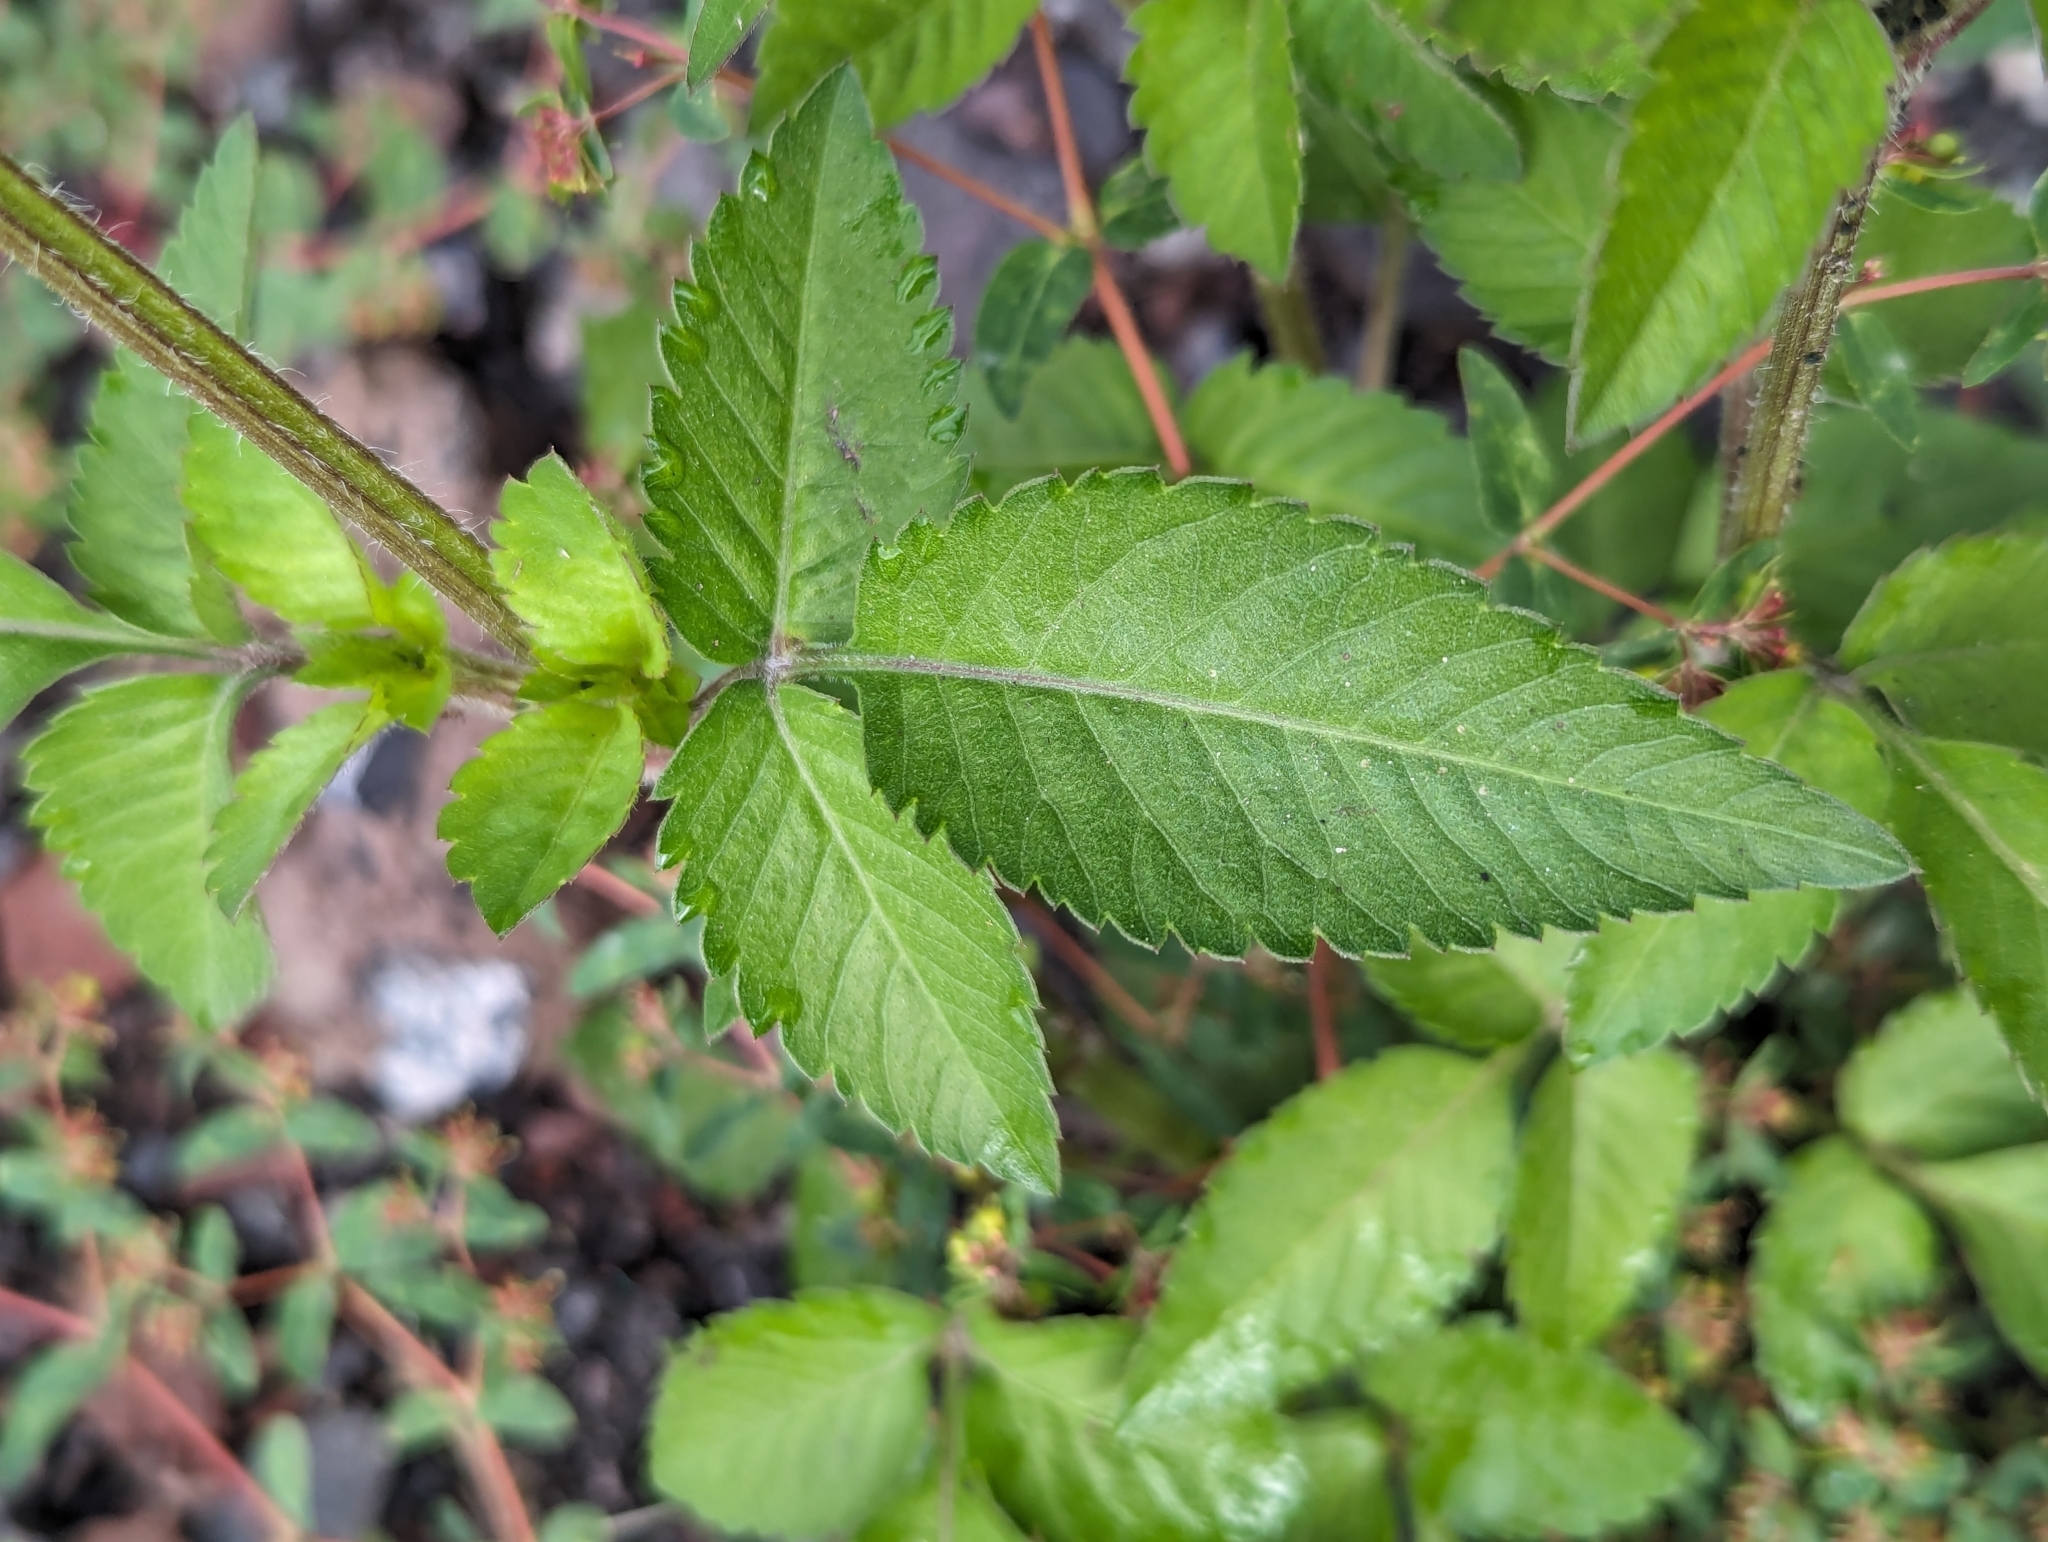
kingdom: Plantae
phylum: Tracheophyta
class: Magnoliopsida
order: Asterales
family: Asteraceae
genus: Bidens
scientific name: Bidens pilosa
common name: Black-jack
